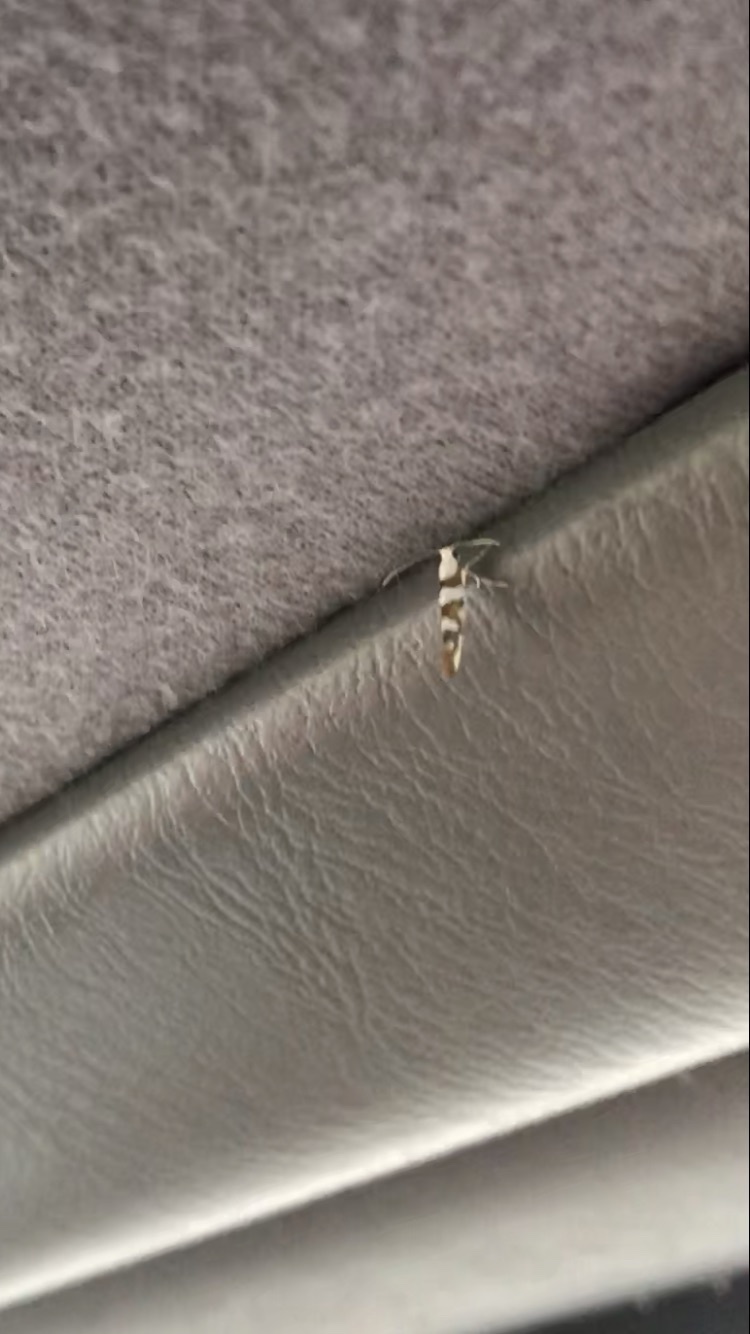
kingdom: Animalia
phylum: Arthropoda
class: Insecta
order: Lepidoptera
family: Argyresthiidae
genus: Argyresthia
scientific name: Argyresthia calliphanes
